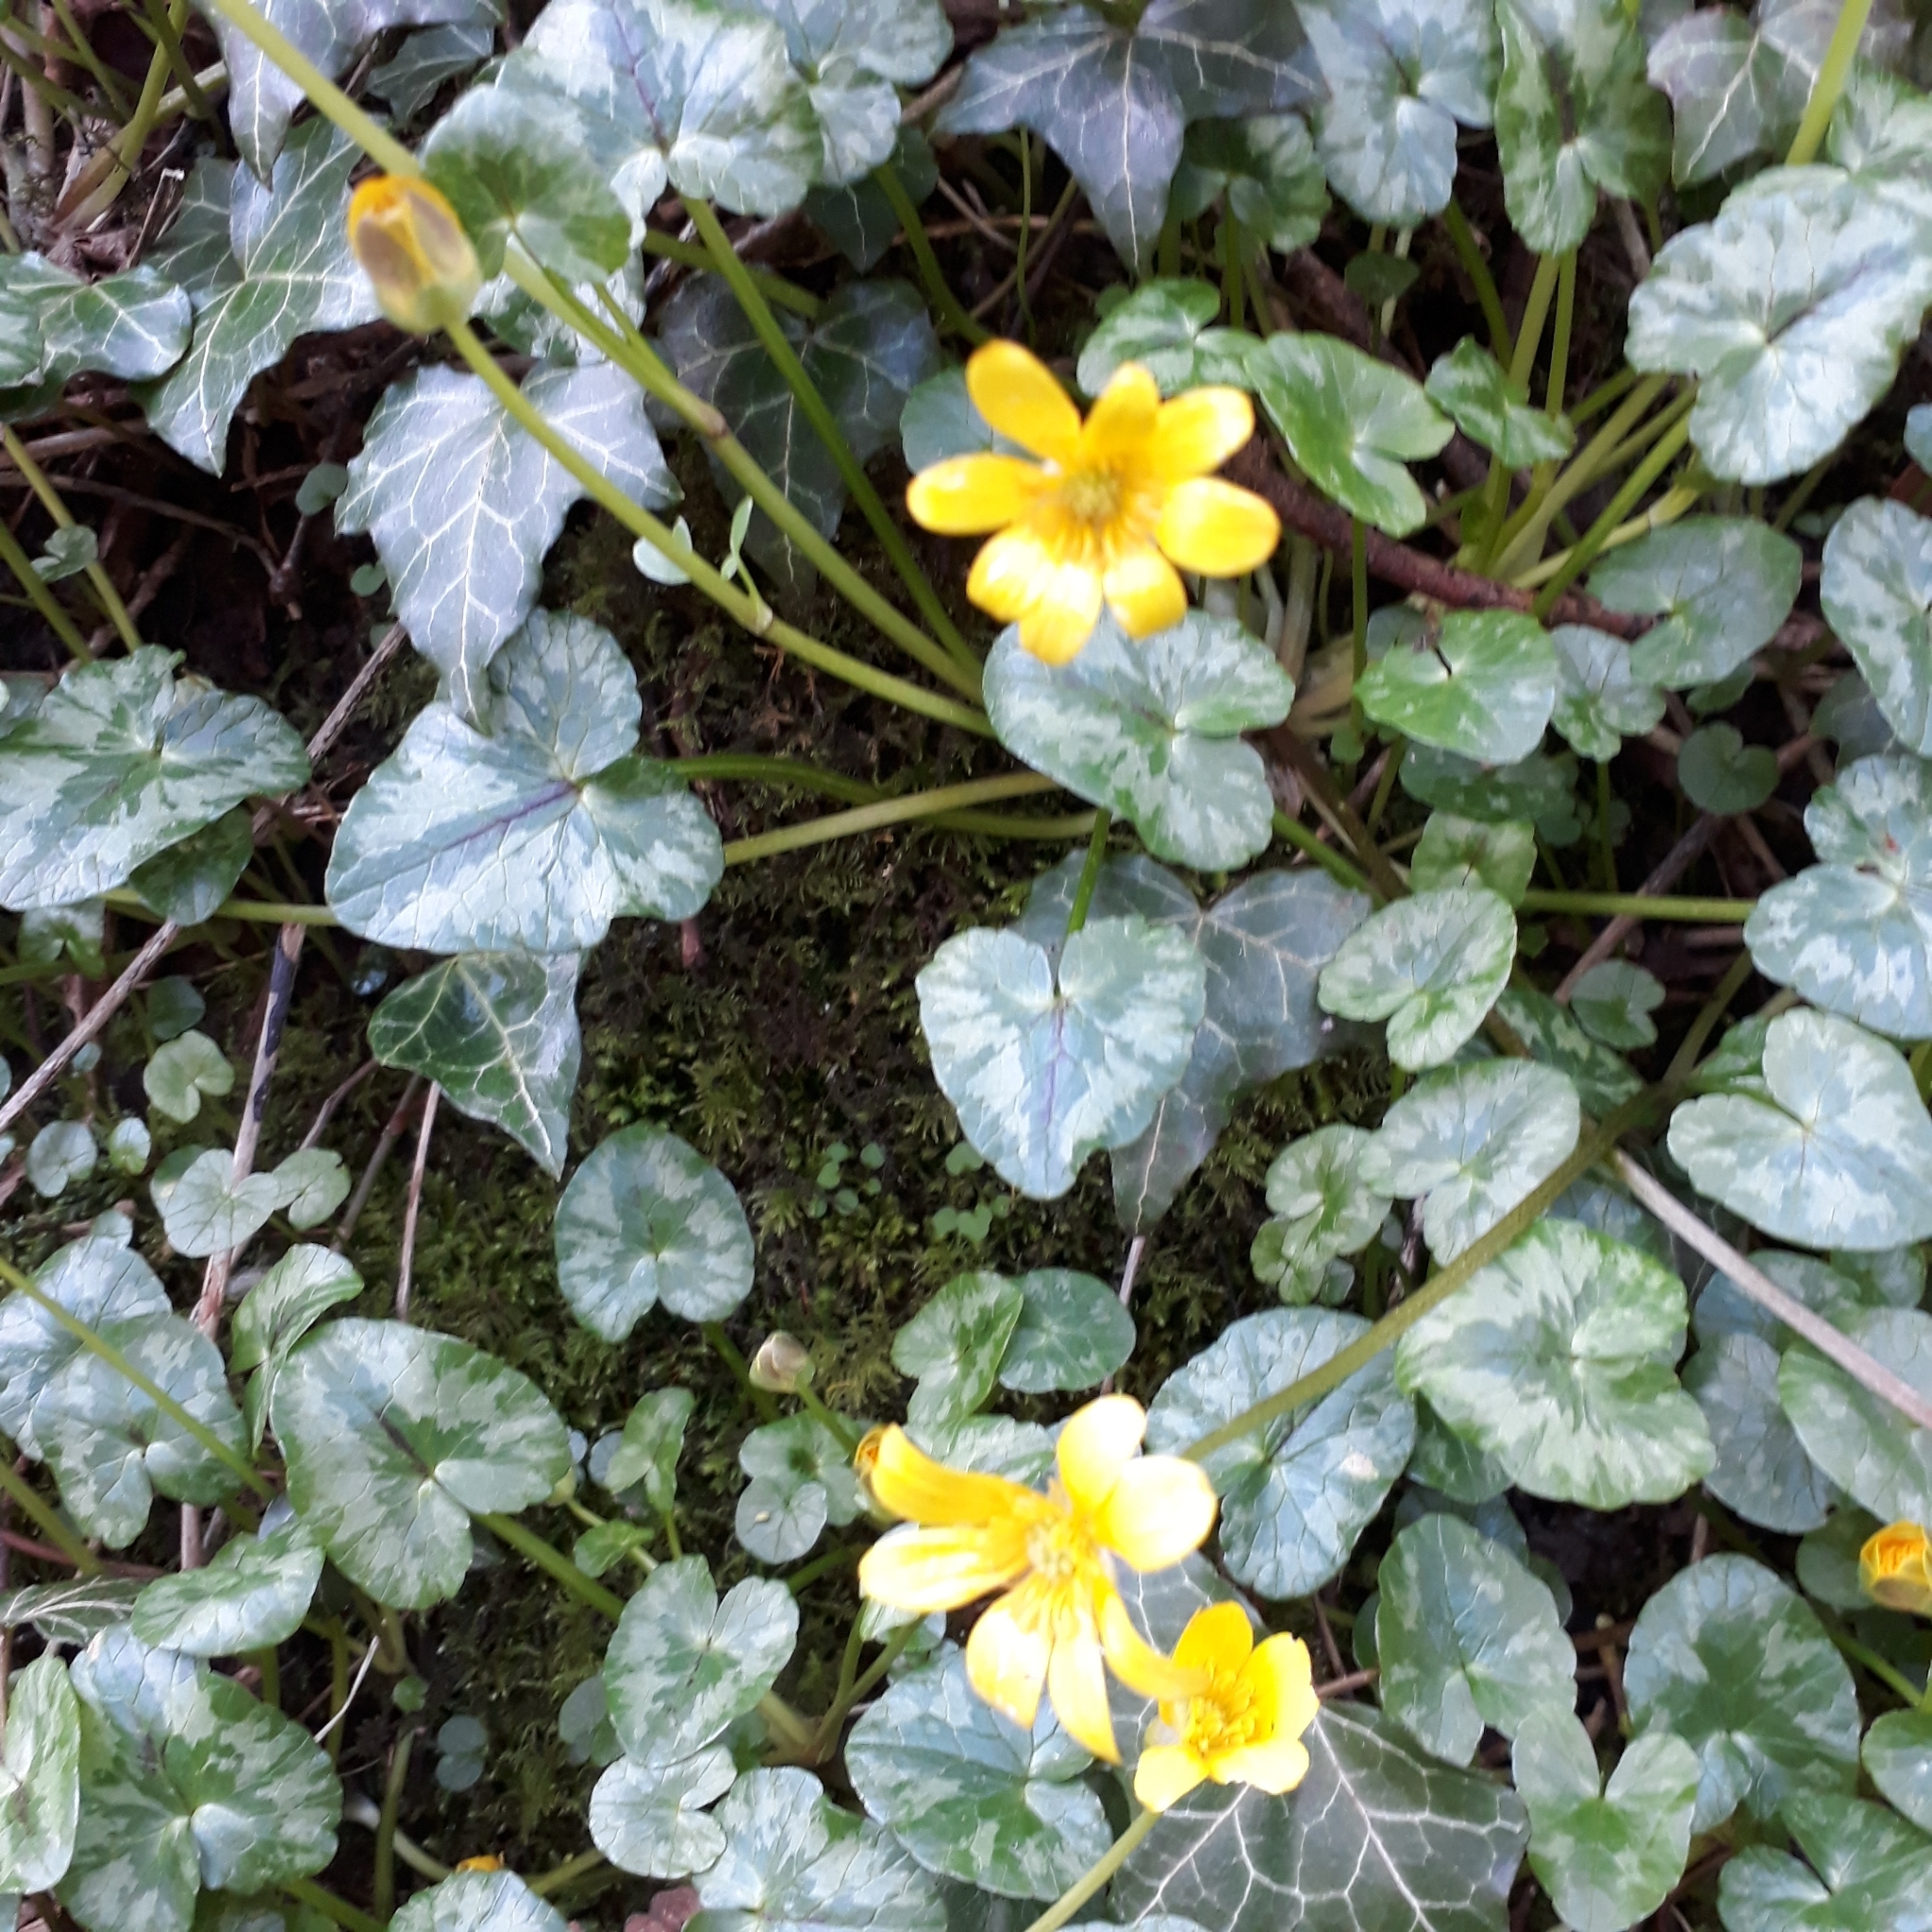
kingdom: Plantae
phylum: Tracheophyta
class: Magnoliopsida
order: Ranunculales
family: Ranunculaceae
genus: Ficaria
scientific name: Ficaria verna
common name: Lesser celandine
